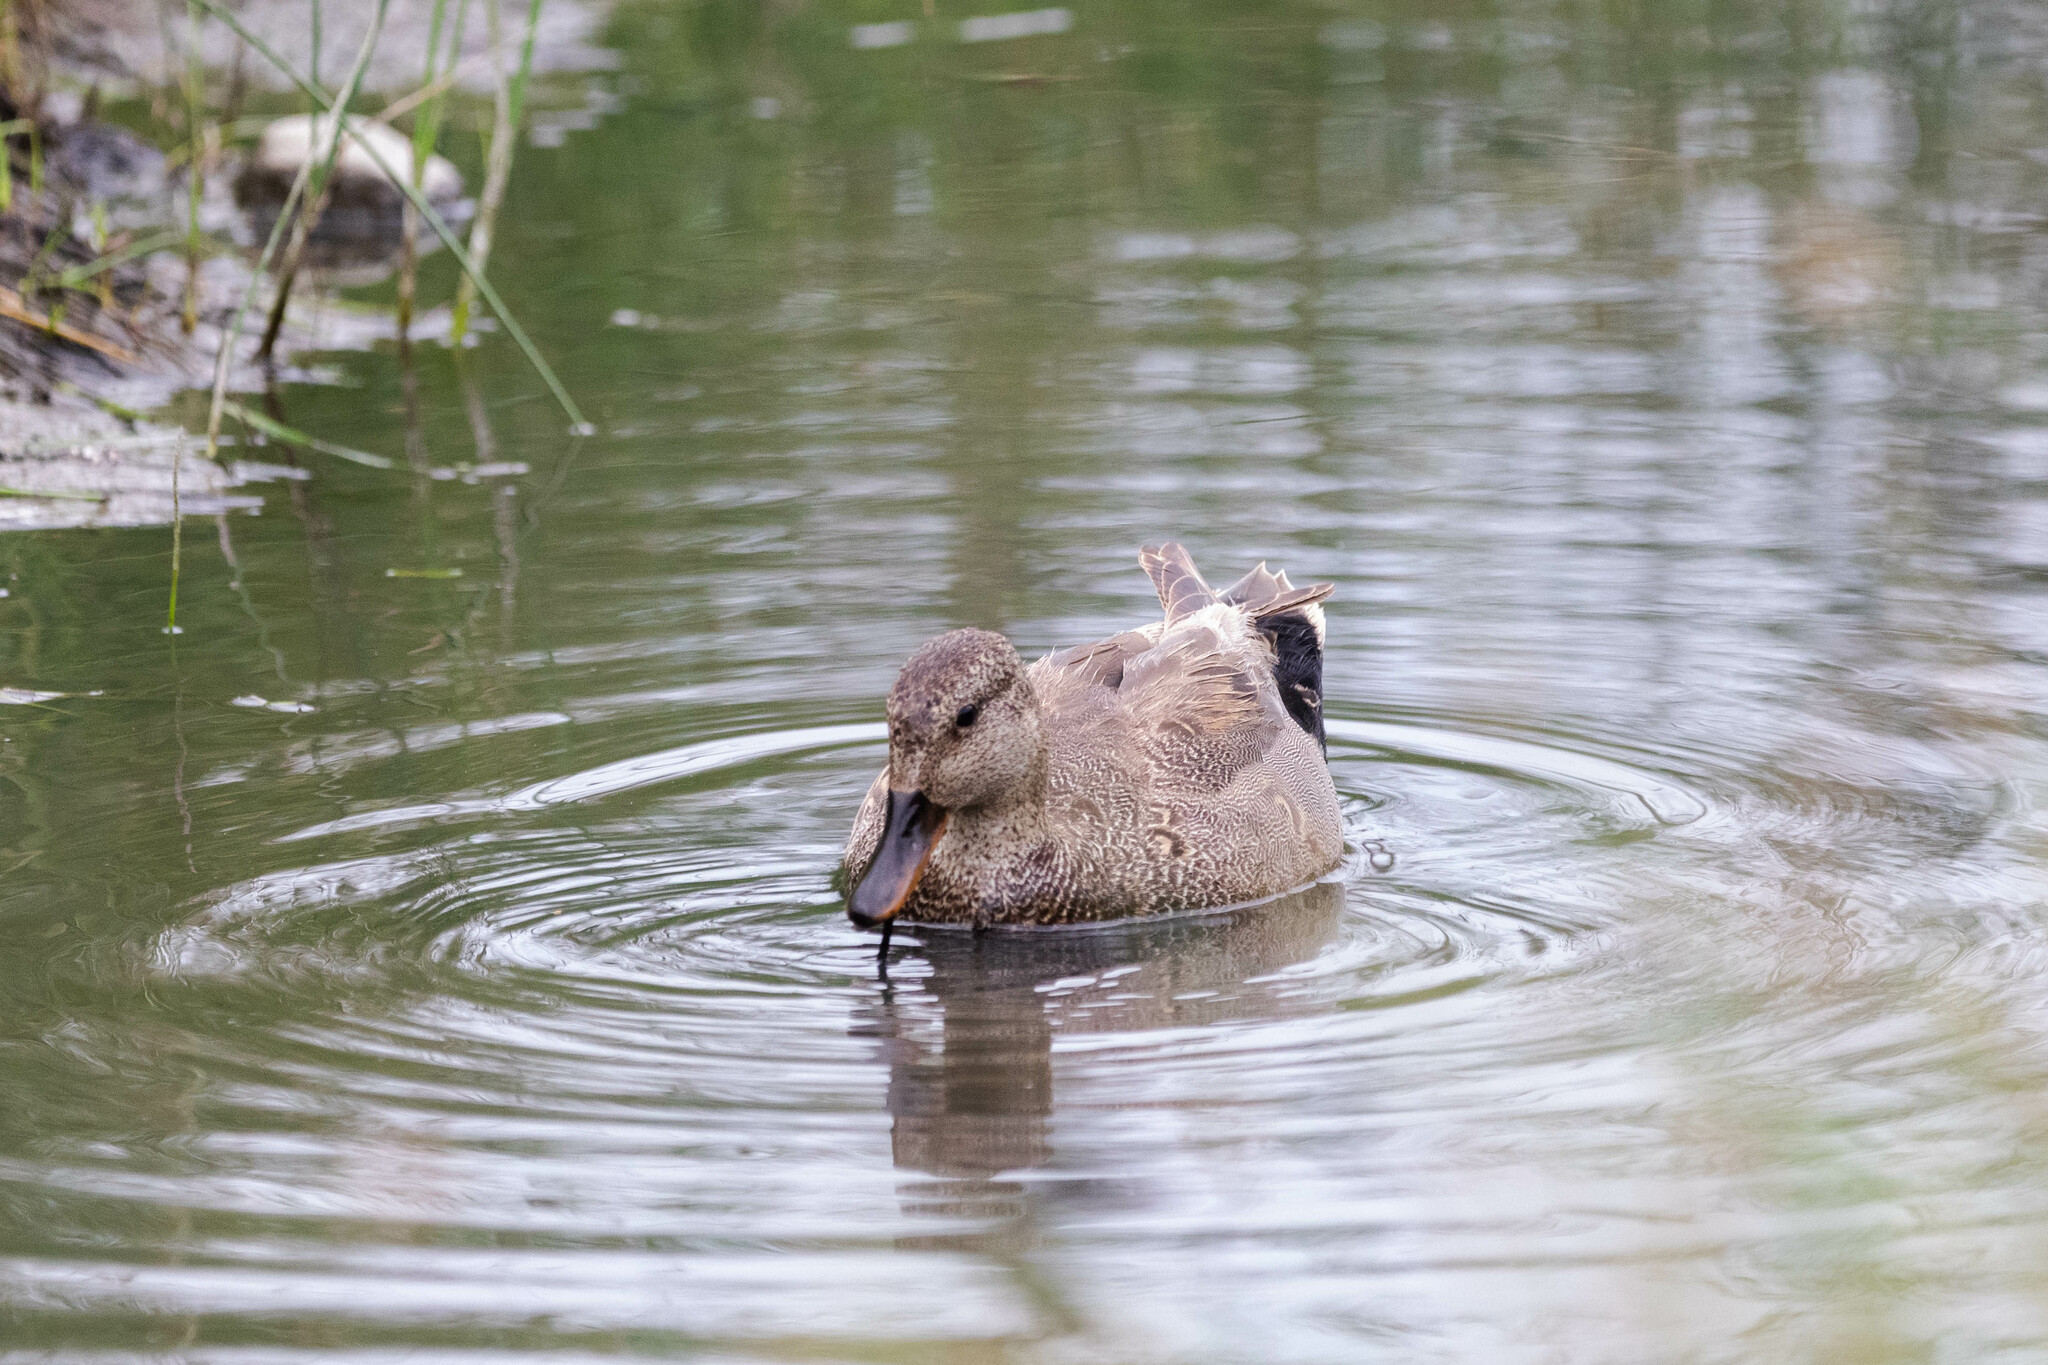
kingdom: Animalia
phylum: Chordata
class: Aves
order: Anseriformes
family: Anatidae
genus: Mareca
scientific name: Mareca strepera
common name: Gadwall
